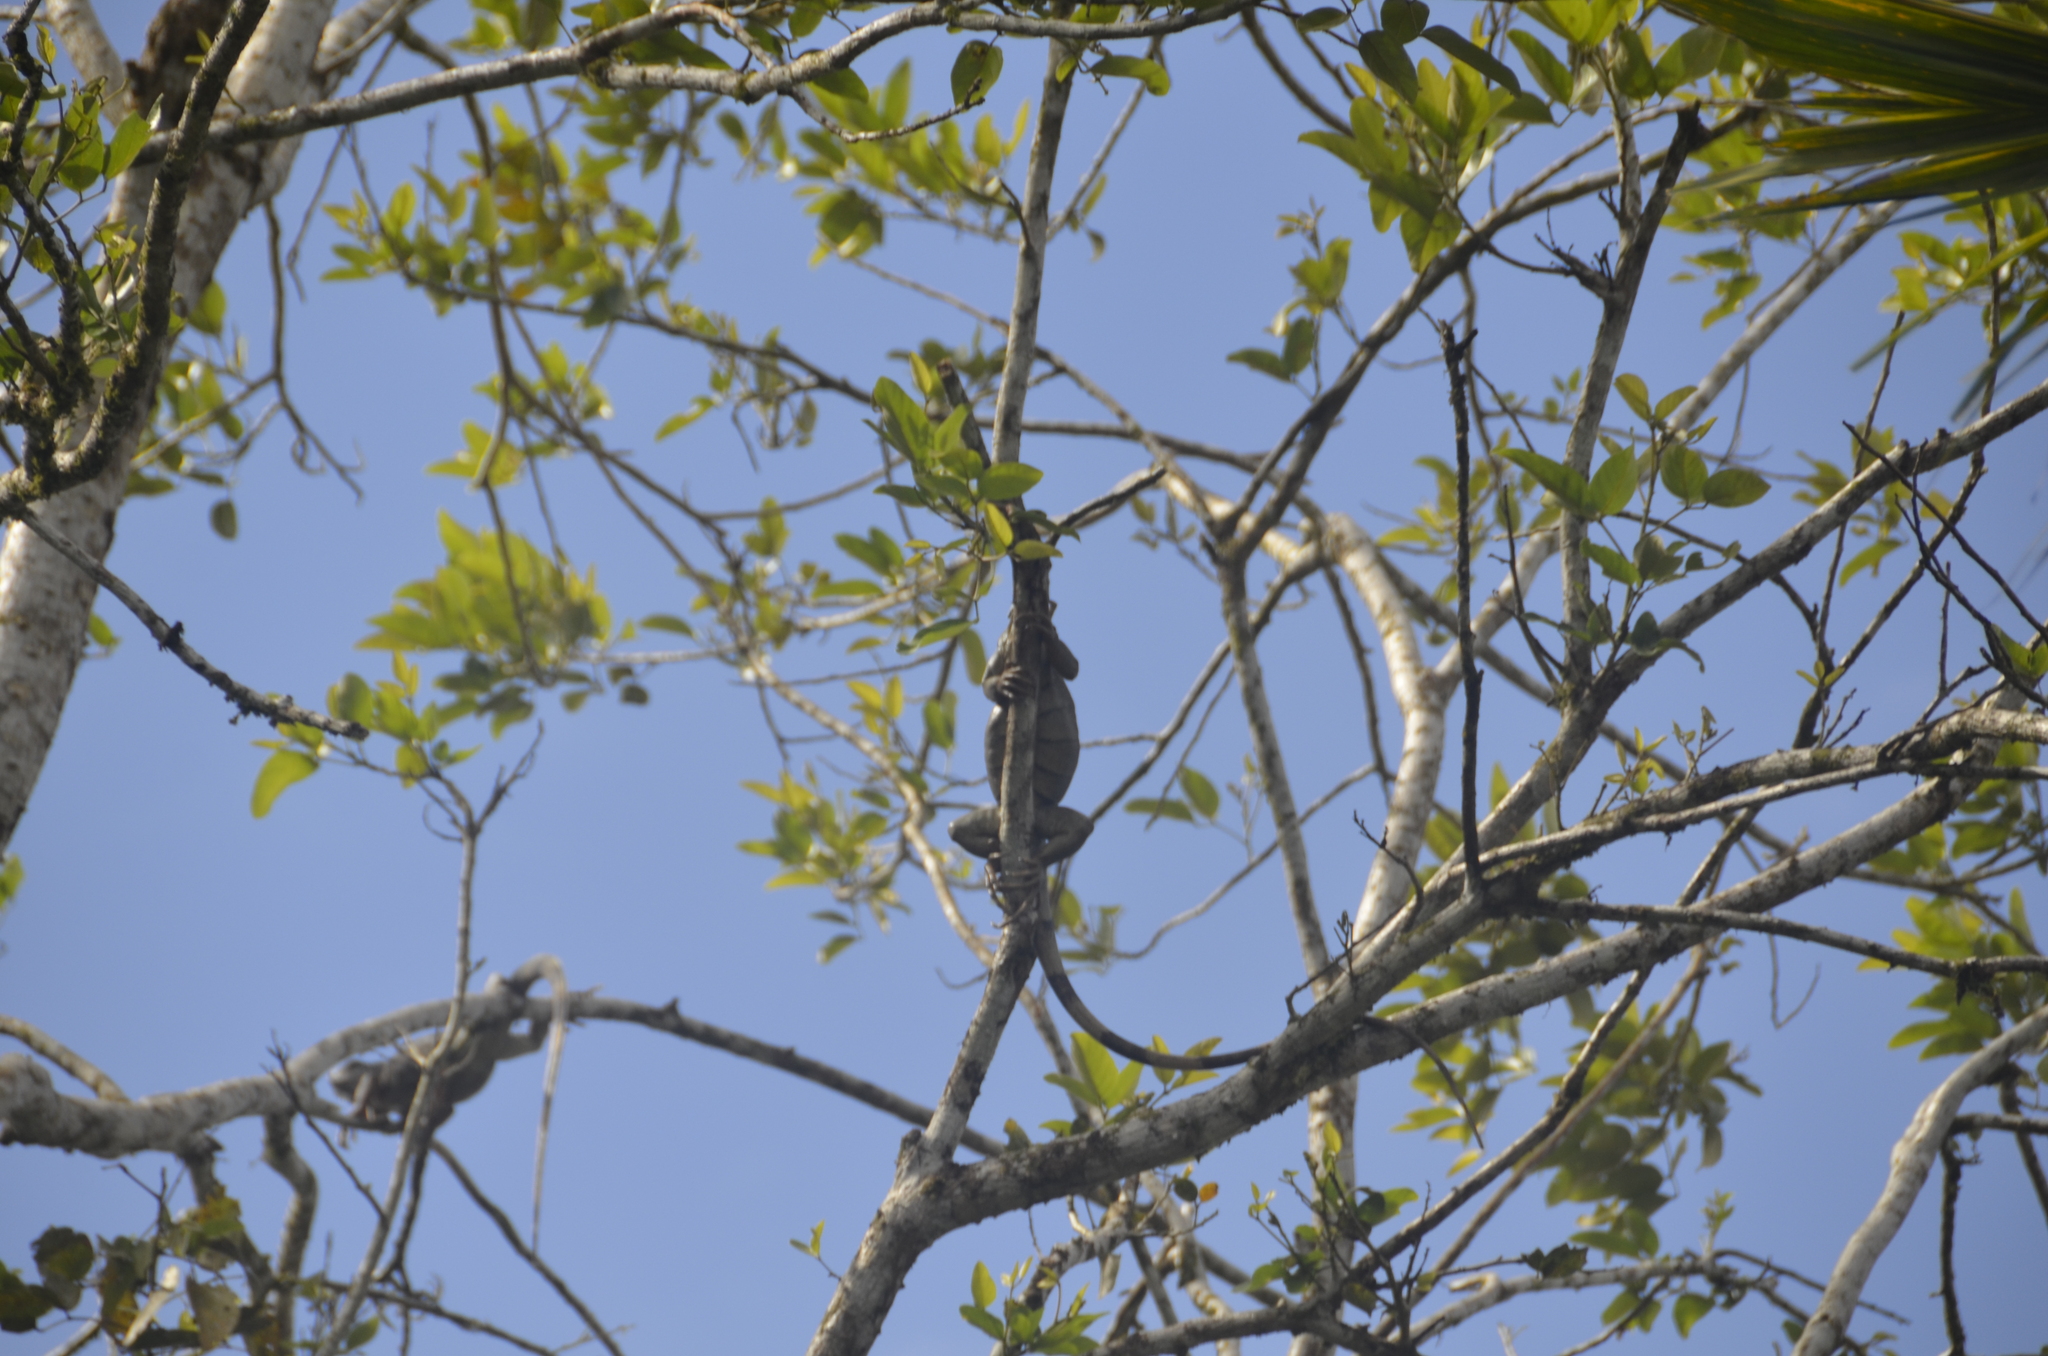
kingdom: Animalia
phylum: Chordata
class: Squamata
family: Iguanidae
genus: Iguana
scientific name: Iguana iguana
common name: Green iguana
